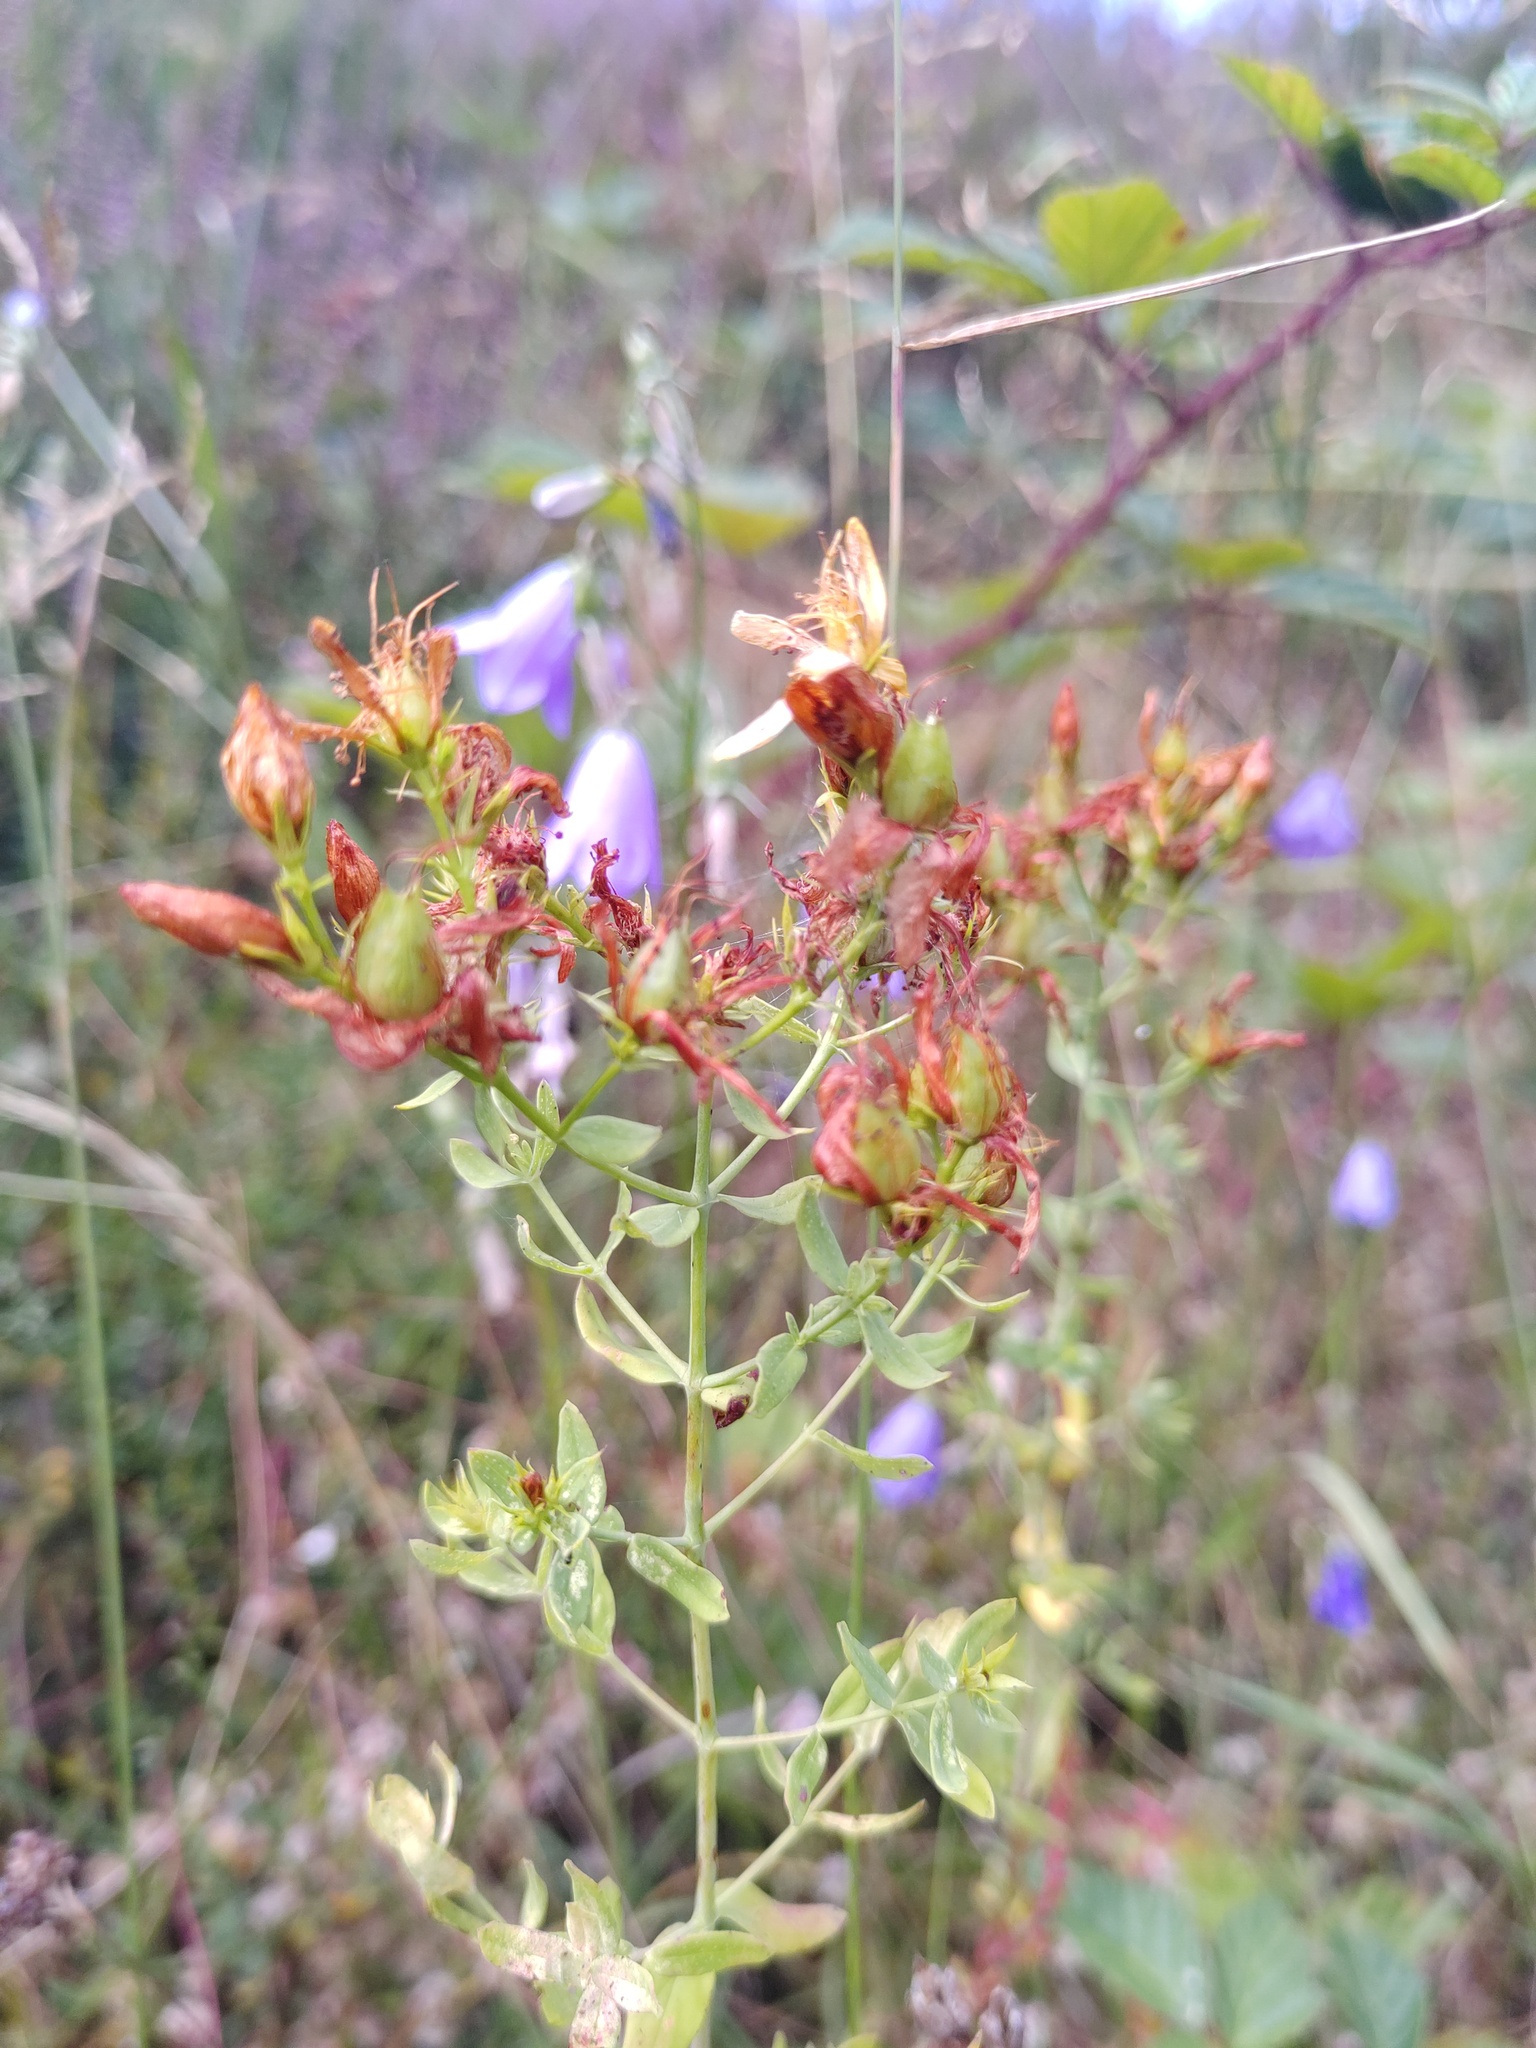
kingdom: Plantae
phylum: Tracheophyta
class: Magnoliopsida
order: Malpighiales
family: Hypericaceae
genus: Hypericum
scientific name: Hypericum perforatum
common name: Common st. johnswort
